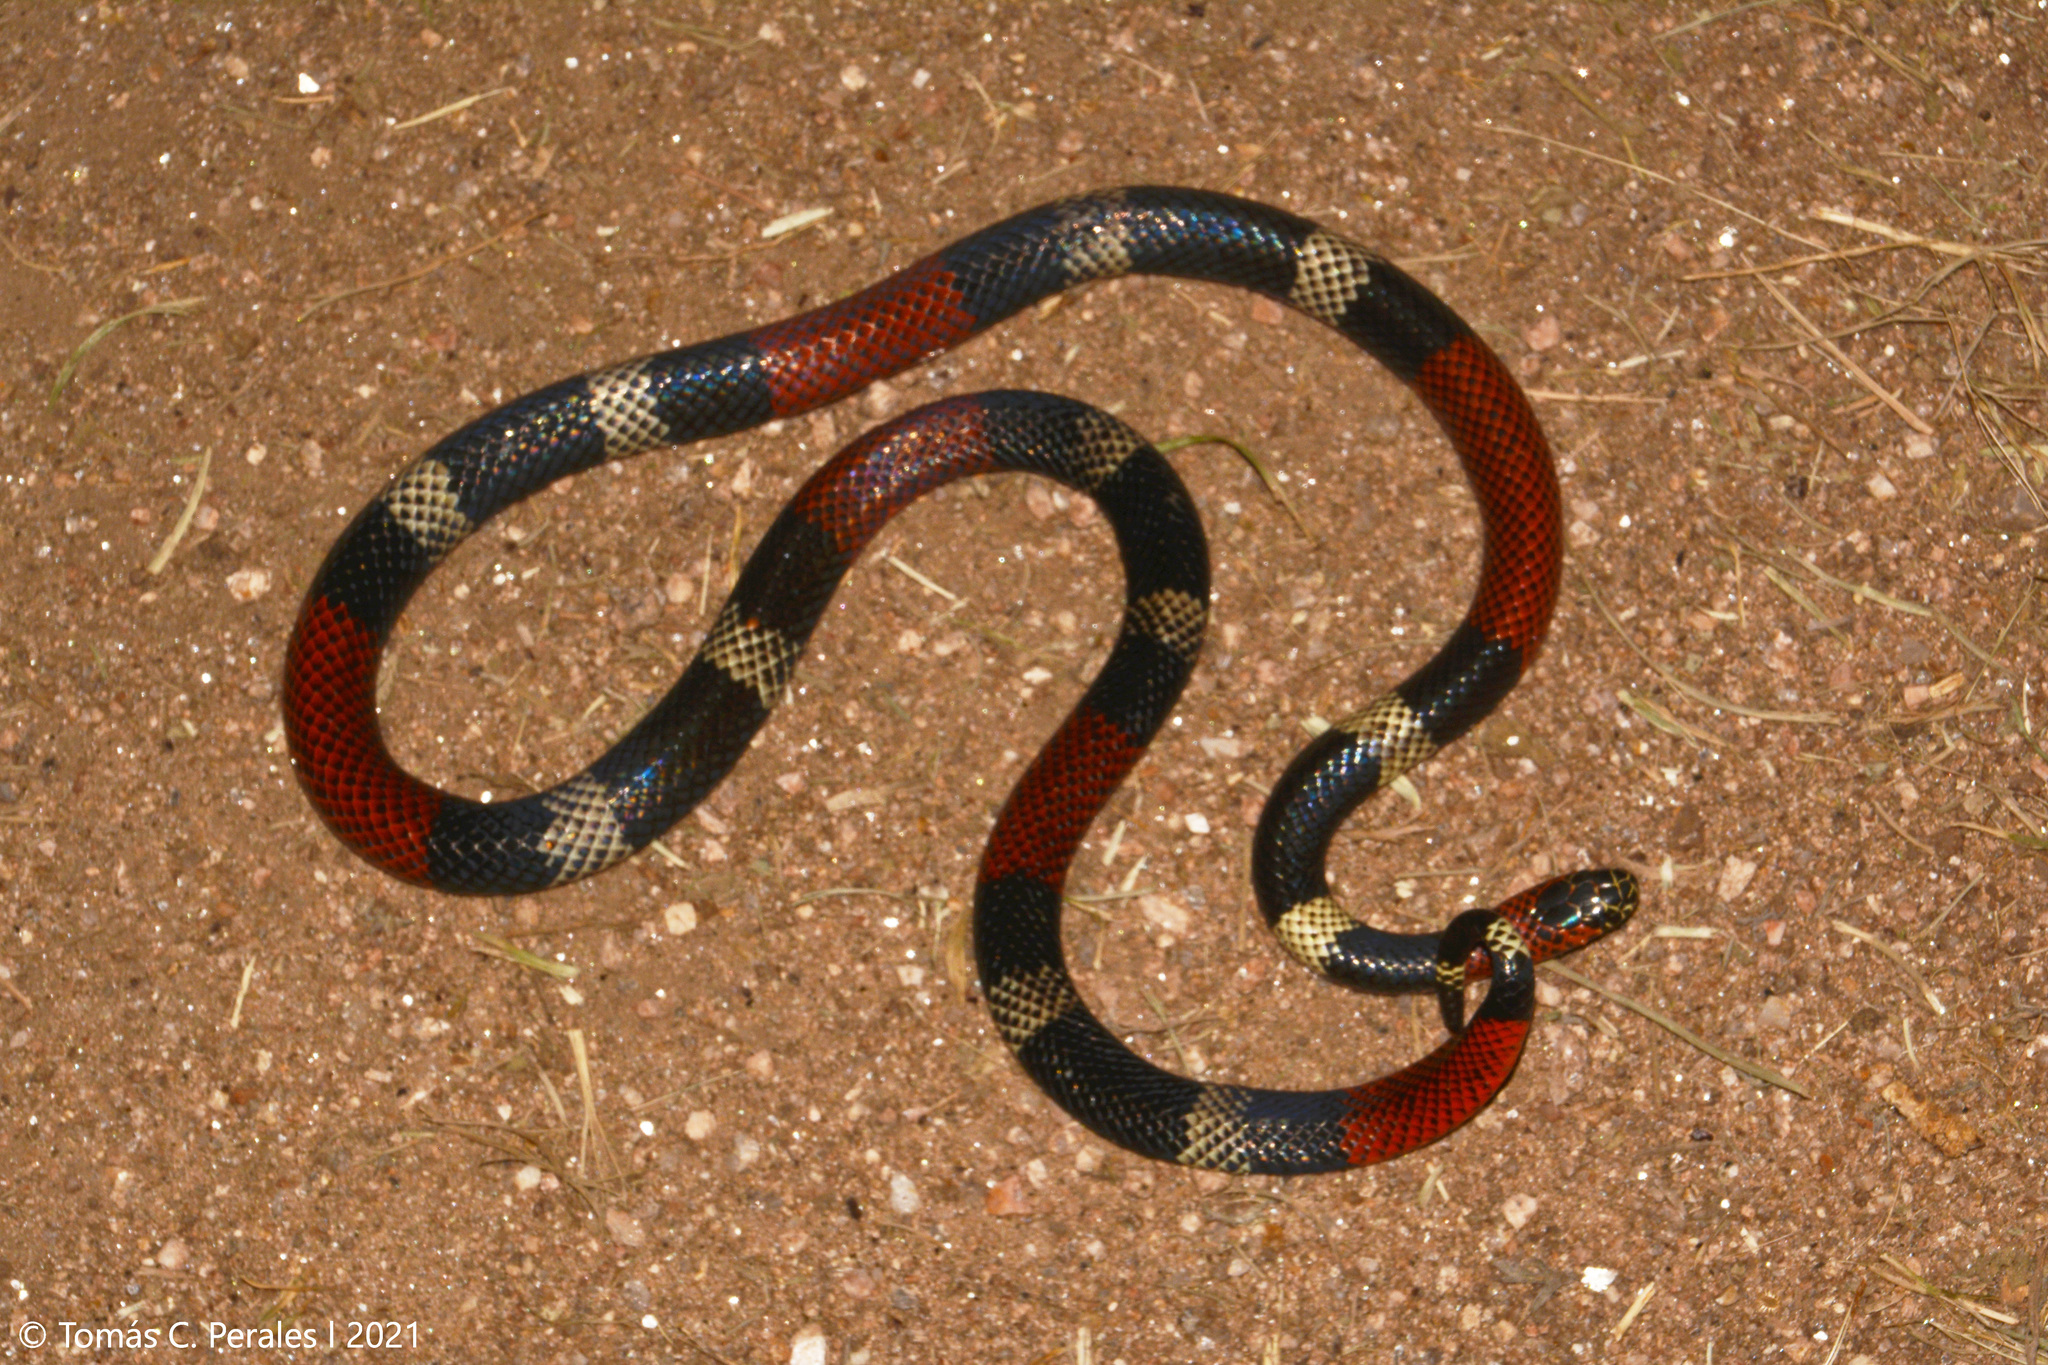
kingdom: Animalia
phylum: Chordata
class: Squamata
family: Elapidae
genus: Micrurus
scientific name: Micrurus pyrrhocryptus
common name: Argentinian coral snake
